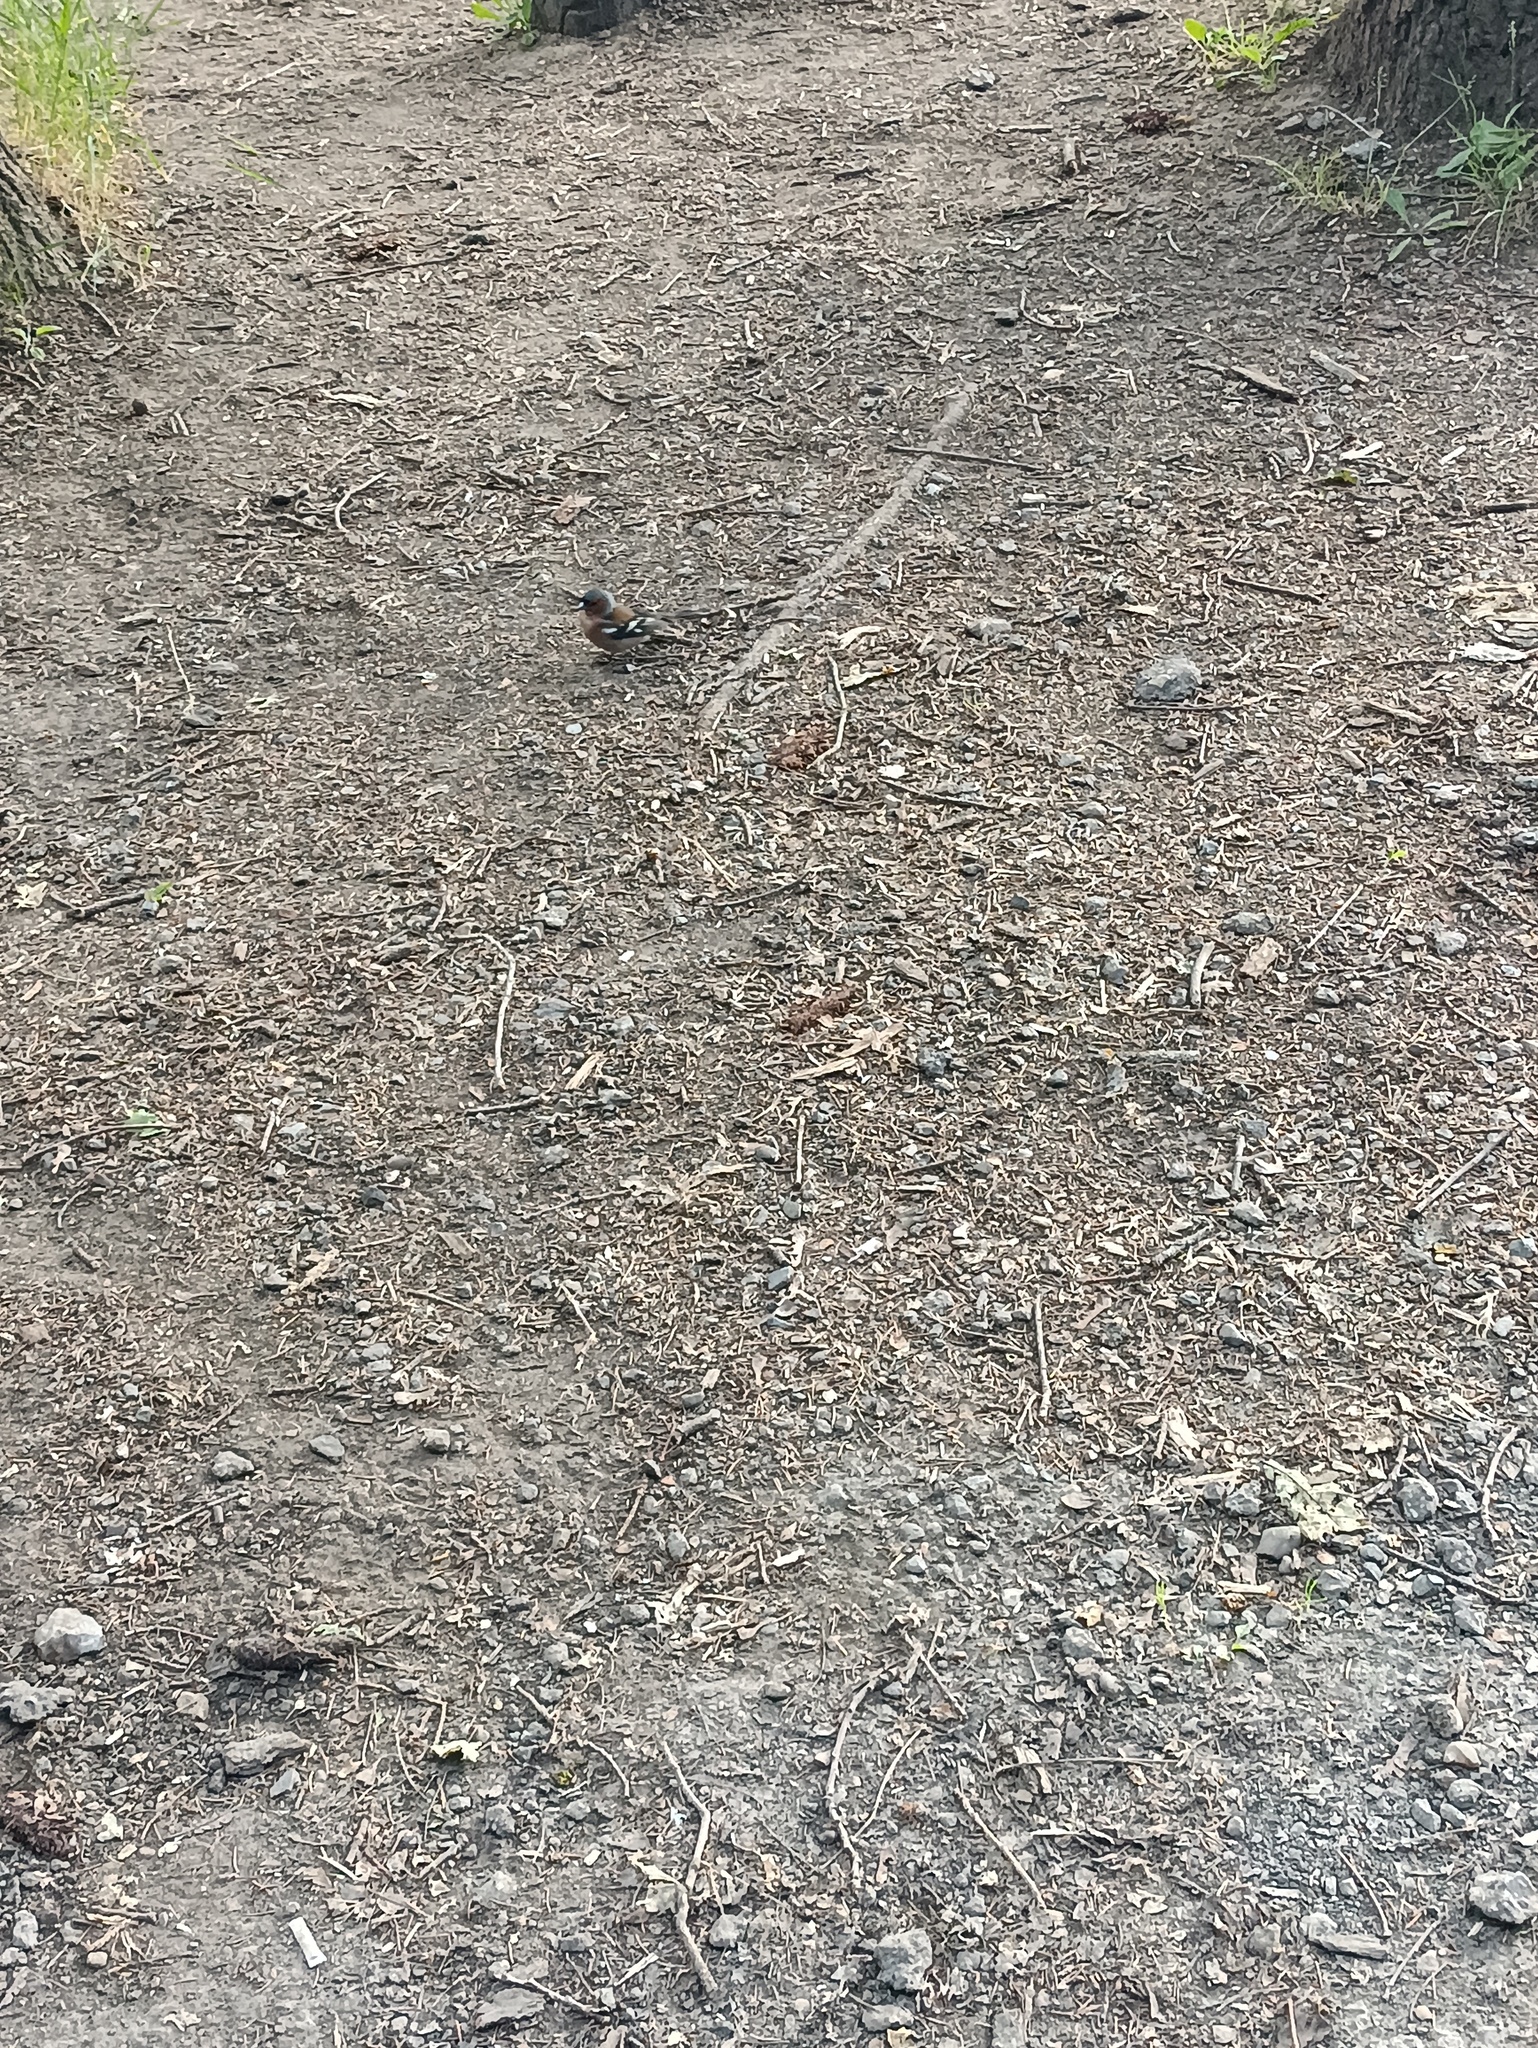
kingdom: Animalia
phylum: Chordata
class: Aves
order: Passeriformes
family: Fringillidae
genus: Fringilla
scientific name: Fringilla coelebs
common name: Common chaffinch
